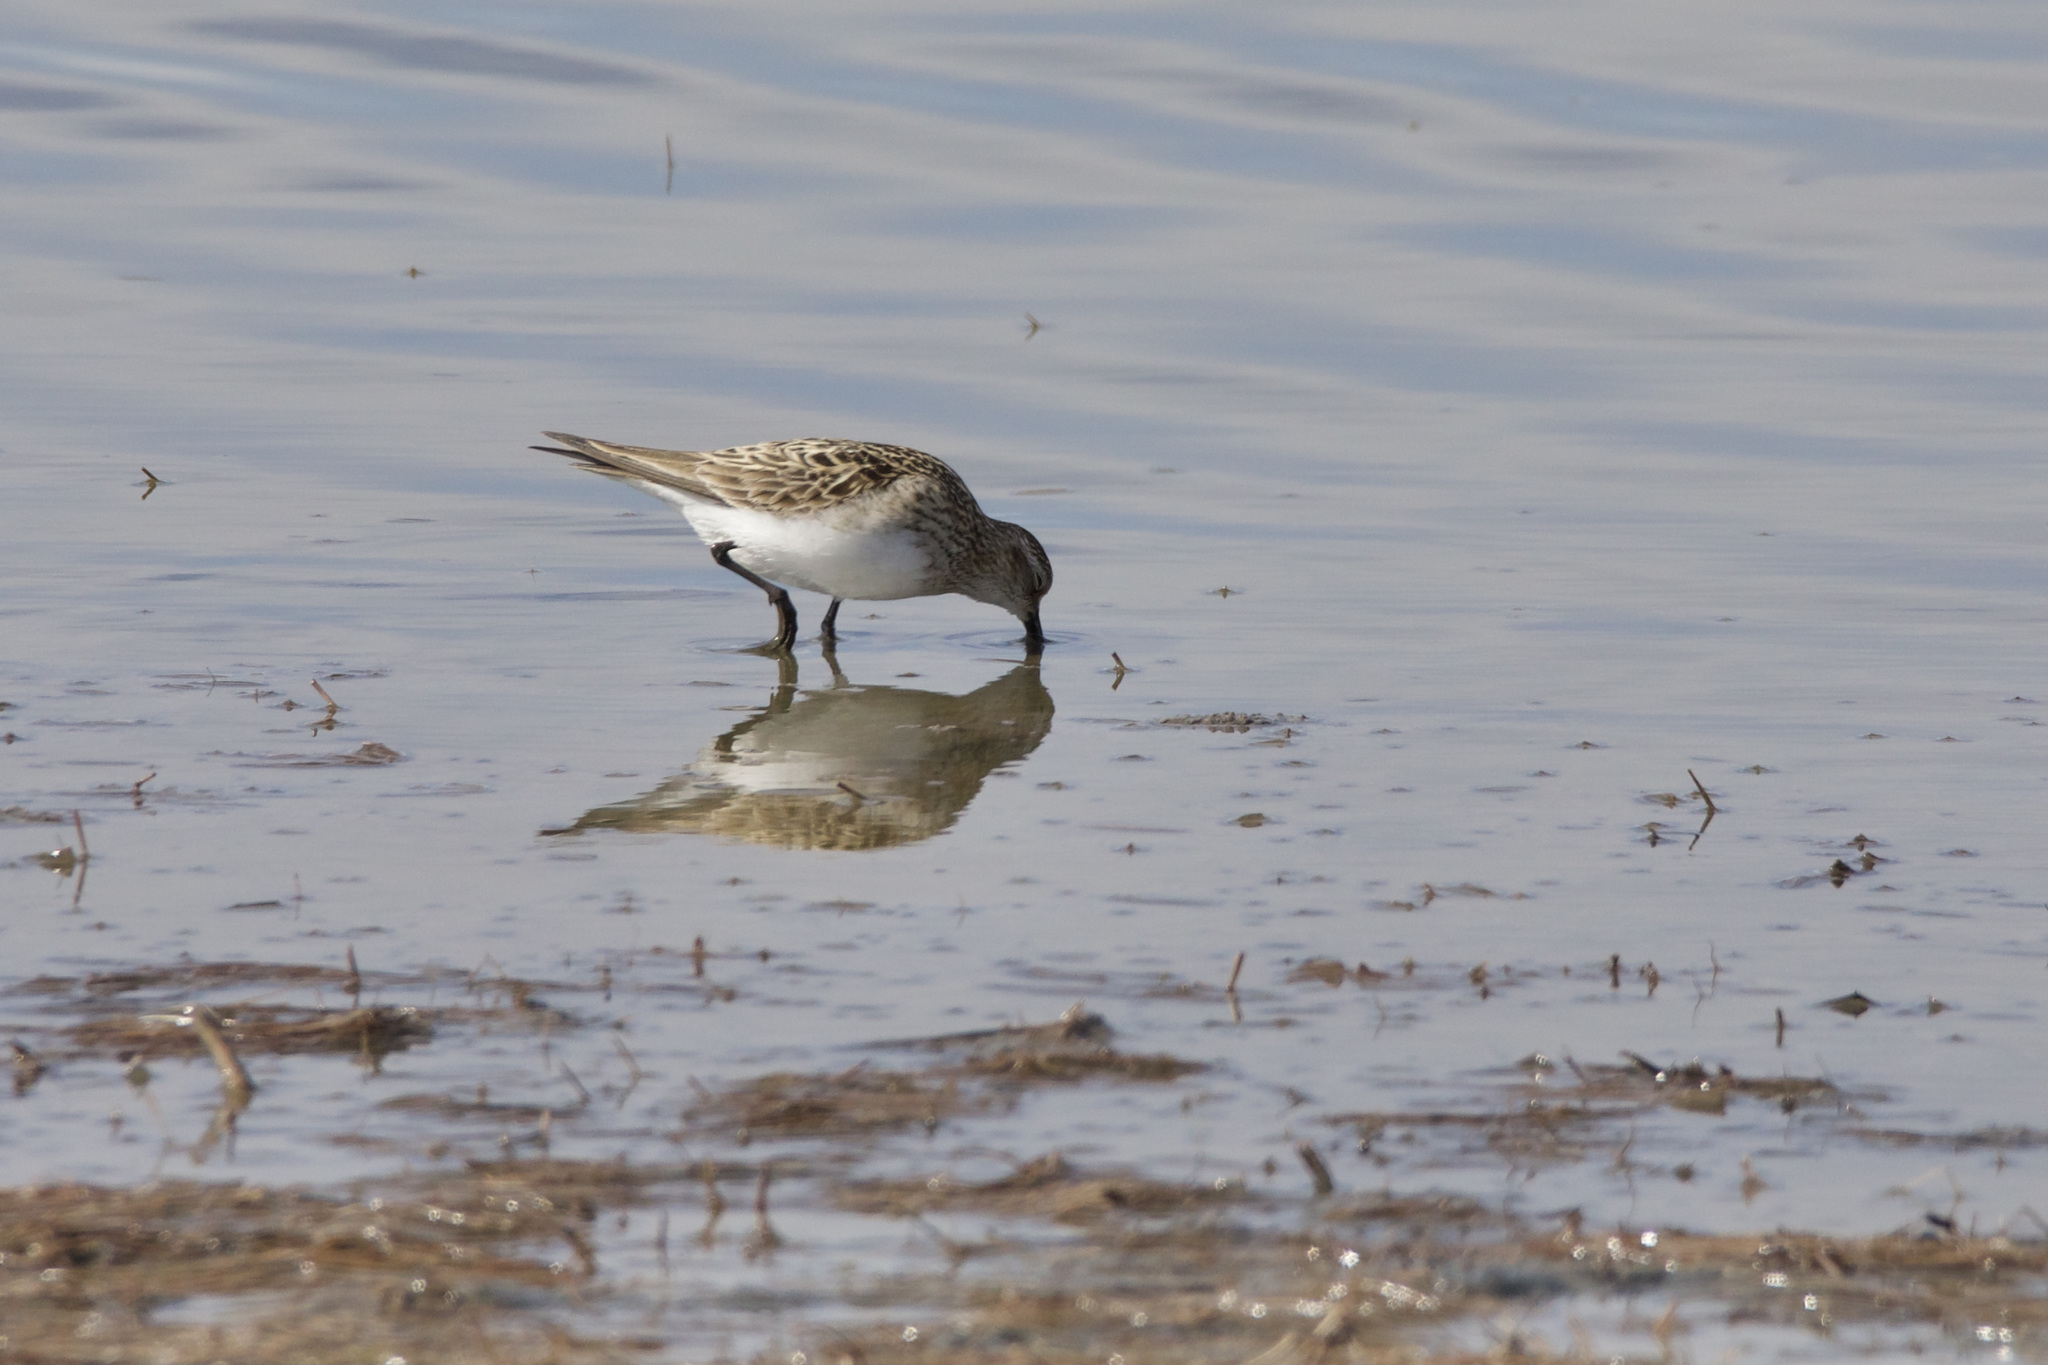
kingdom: Animalia
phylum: Chordata
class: Aves
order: Charadriiformes
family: Scolopacidae
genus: Calidris
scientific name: Calidris bairdii
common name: Baird's sandpiper
